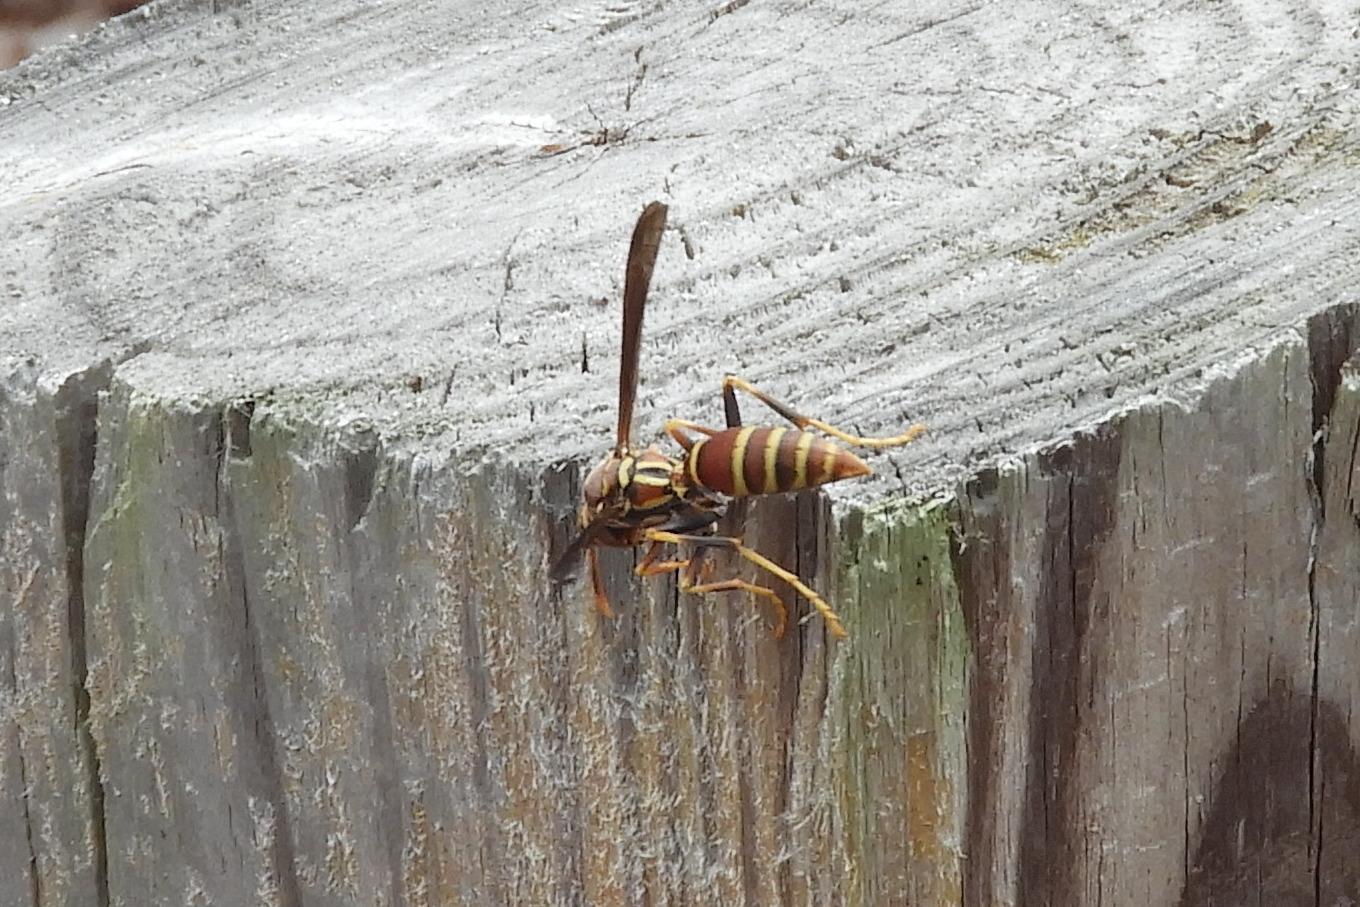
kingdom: Animalia
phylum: Arthropoda
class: Insecta
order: Hymenoptera
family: Eumenidae
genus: Polistes
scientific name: Polistes exclamans
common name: Paper wasp
